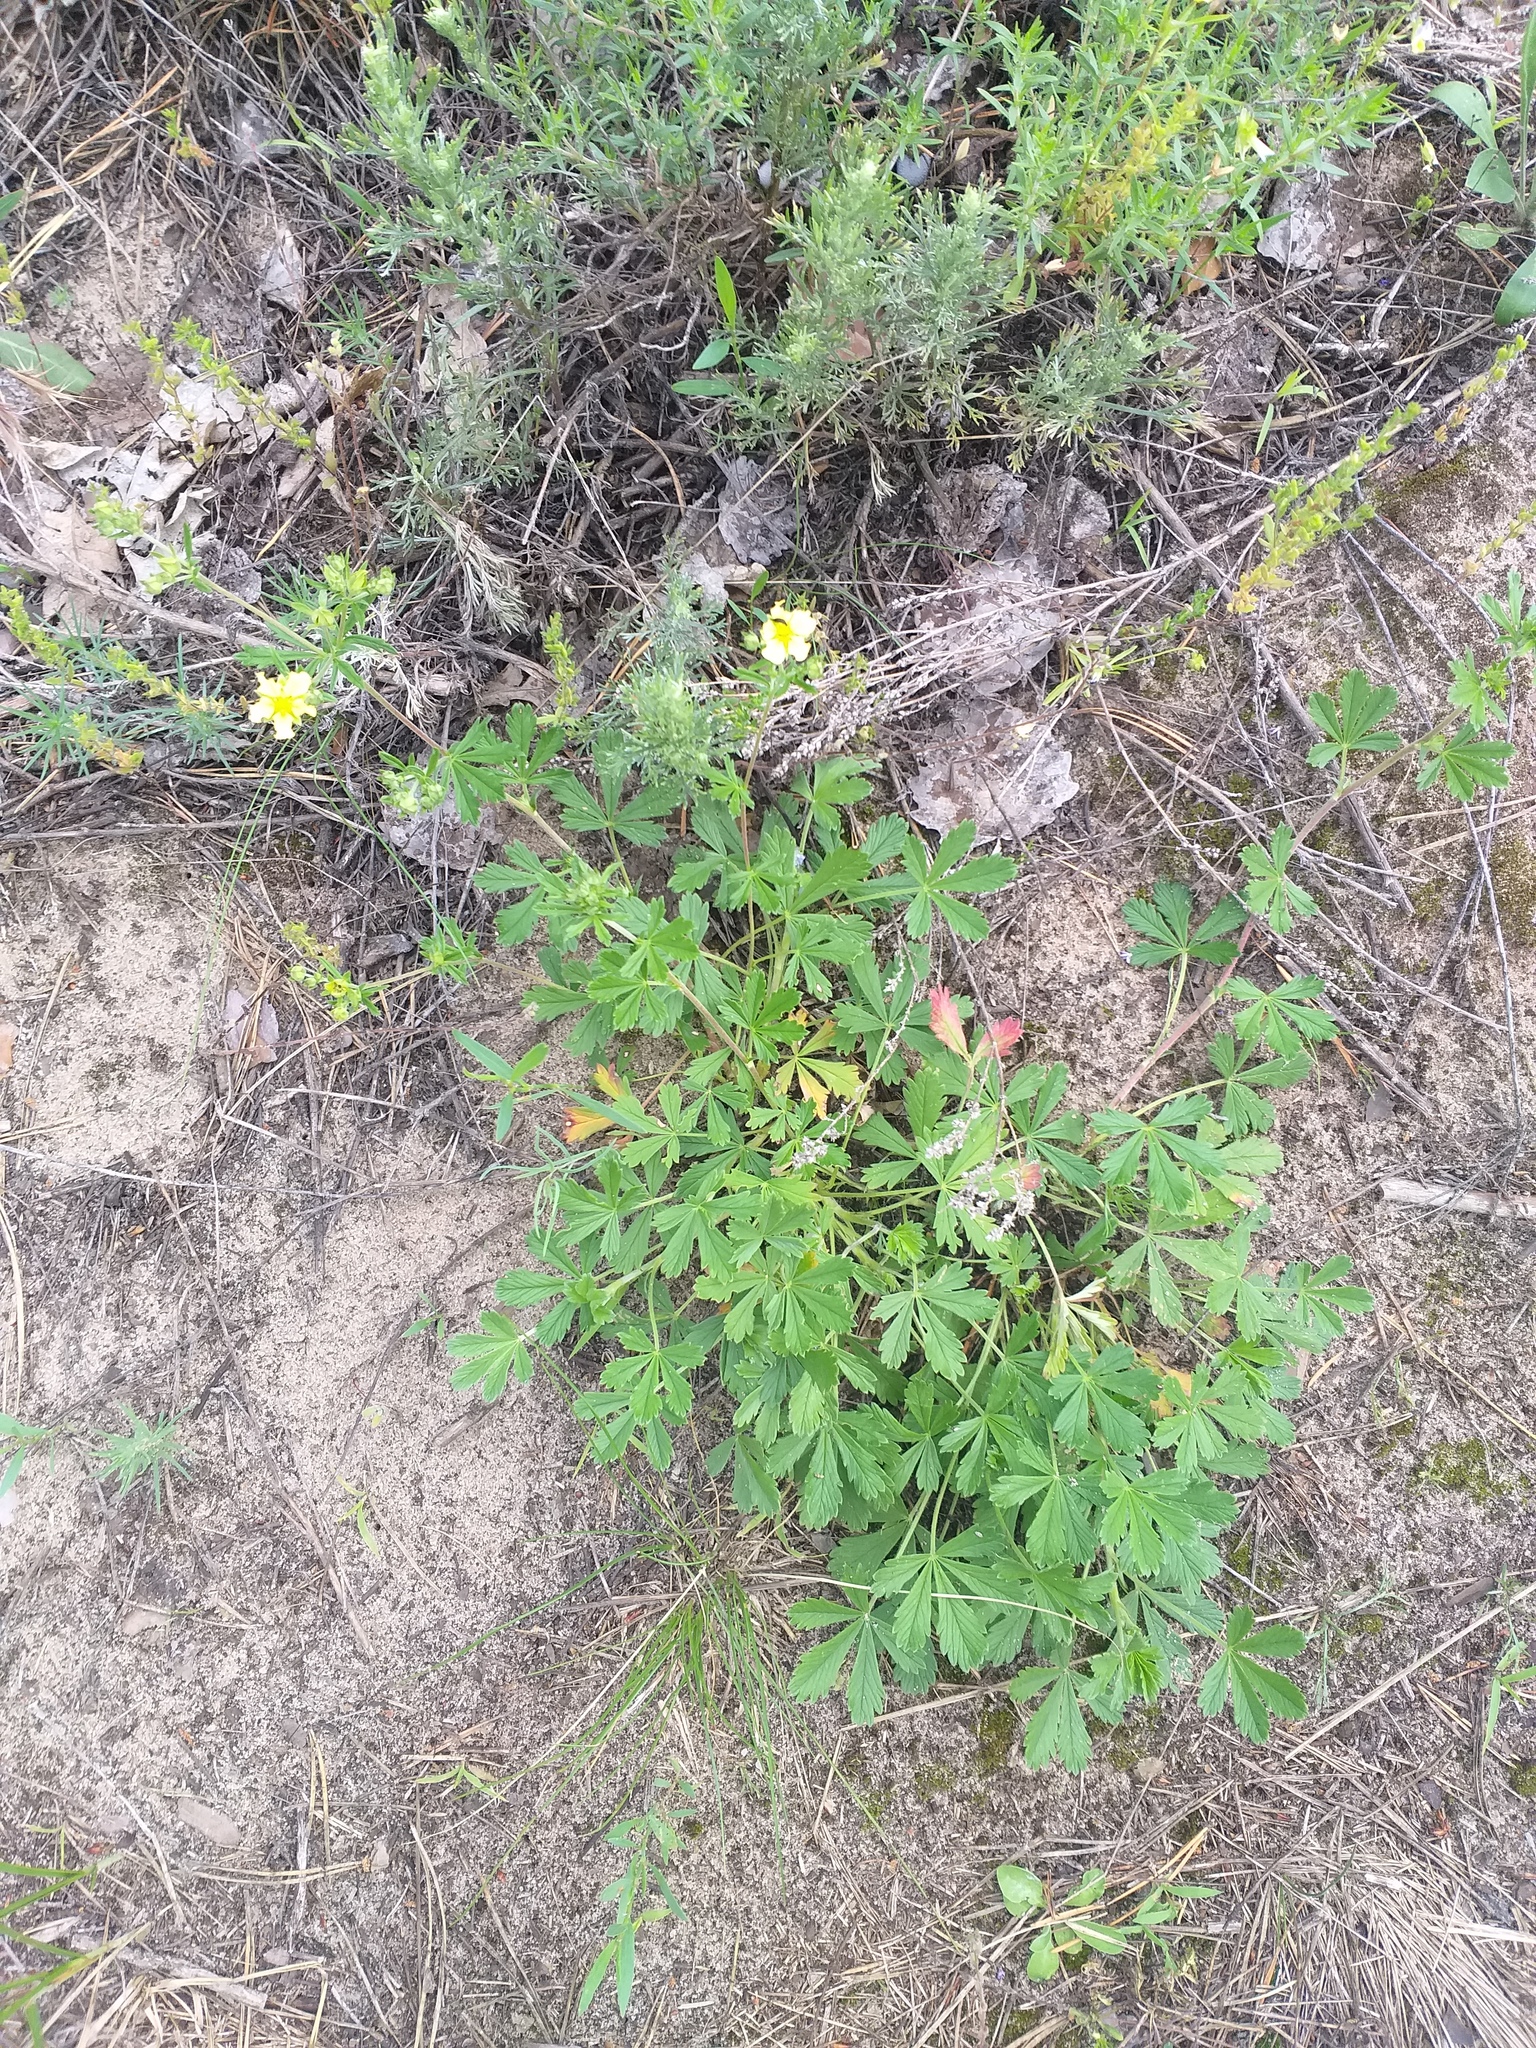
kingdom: Plantae
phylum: Tracheophyta
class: Magnoliopsida
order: Rosales
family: Rosaceae
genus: Potentilla
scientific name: Potentilla collina
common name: Palmleaf cinquefoil
